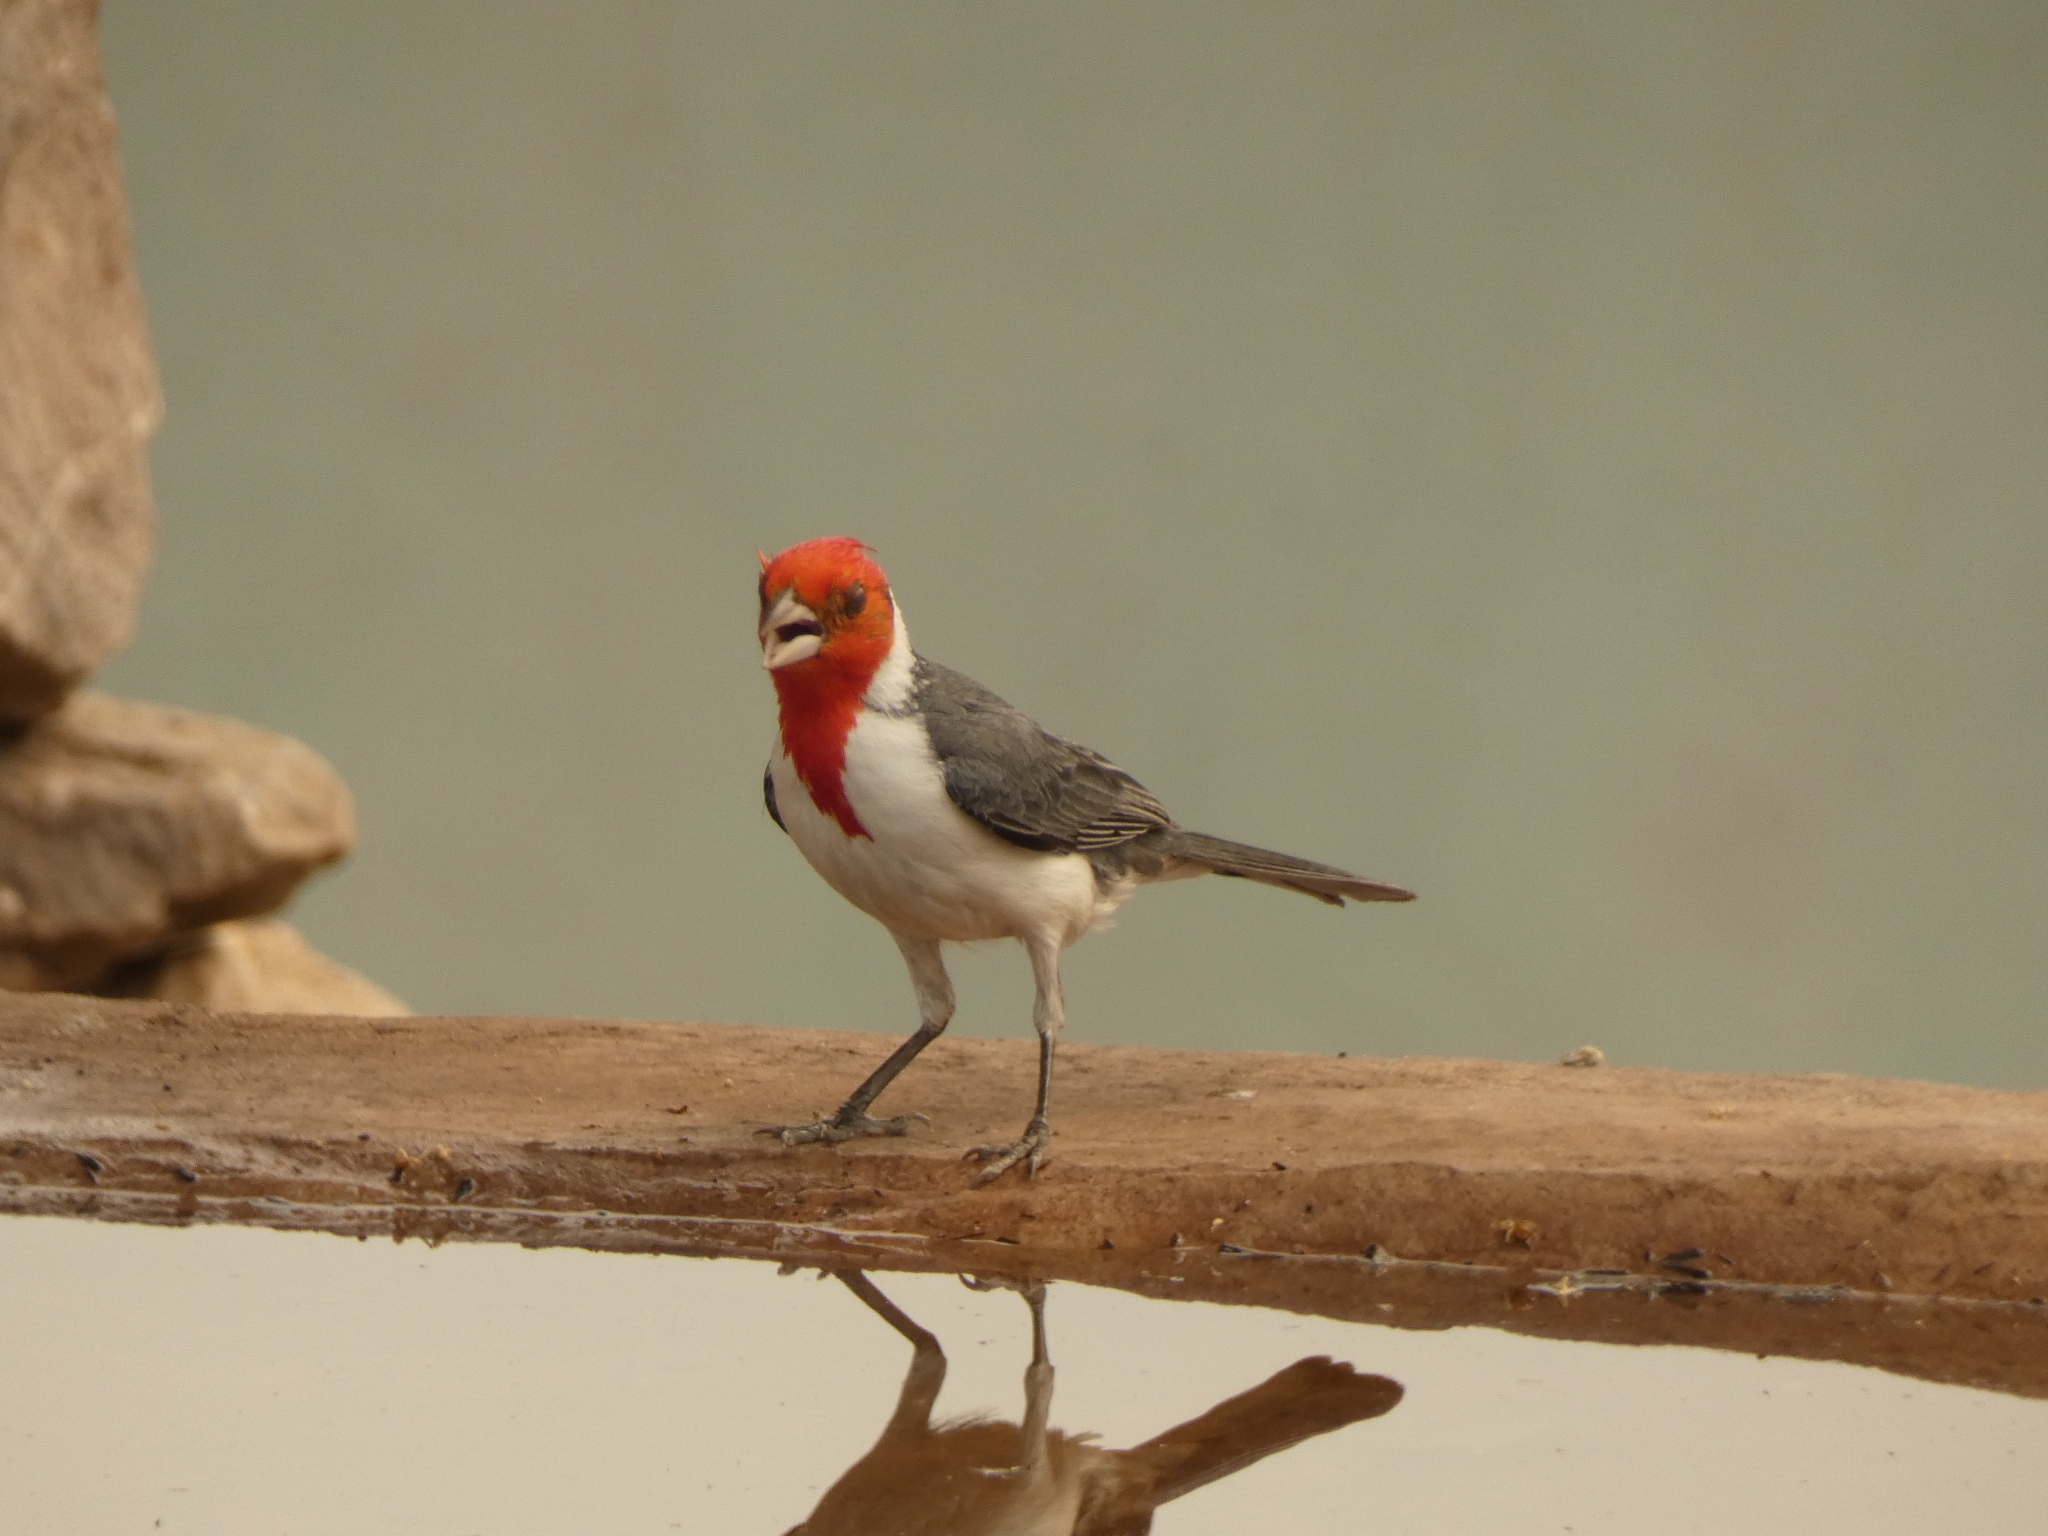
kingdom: Animalia
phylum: Chordata
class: Aves
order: Passeriformes
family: Thraupidae
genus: Paroaria
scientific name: Paroaria coronata
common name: Red-crested cardinal
